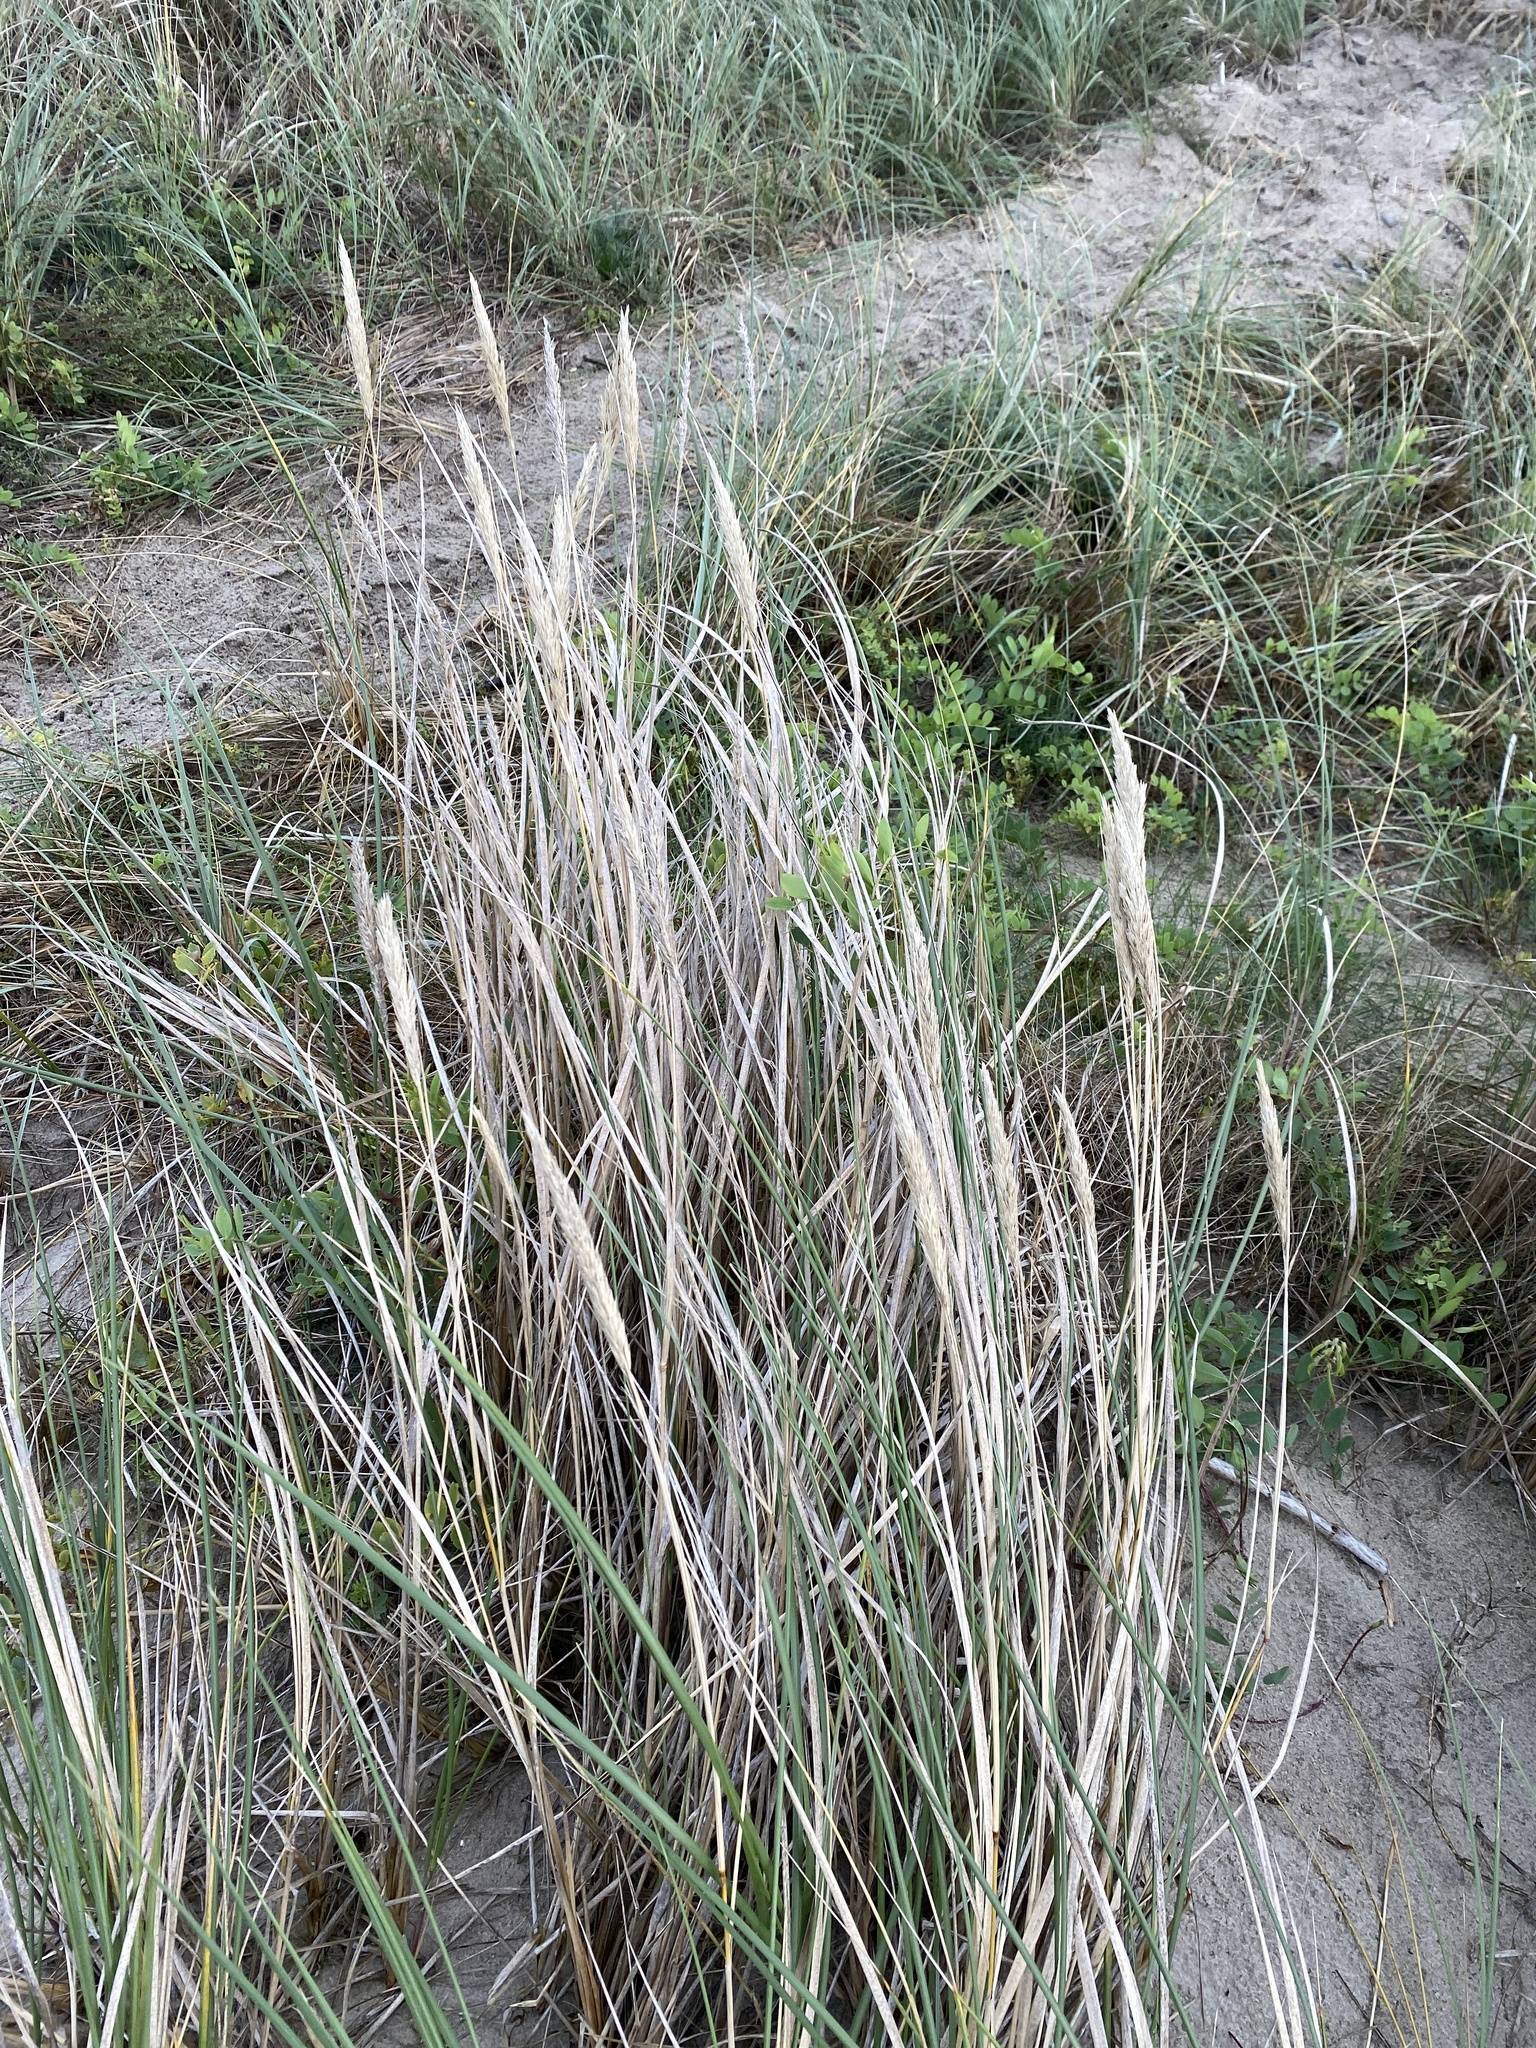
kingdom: Plantae
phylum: Tracheophyta
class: Liliopsida
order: Poales
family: Poaceae
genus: Calamagrostis
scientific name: Calamagrostis arenaria
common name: European beachgrass
